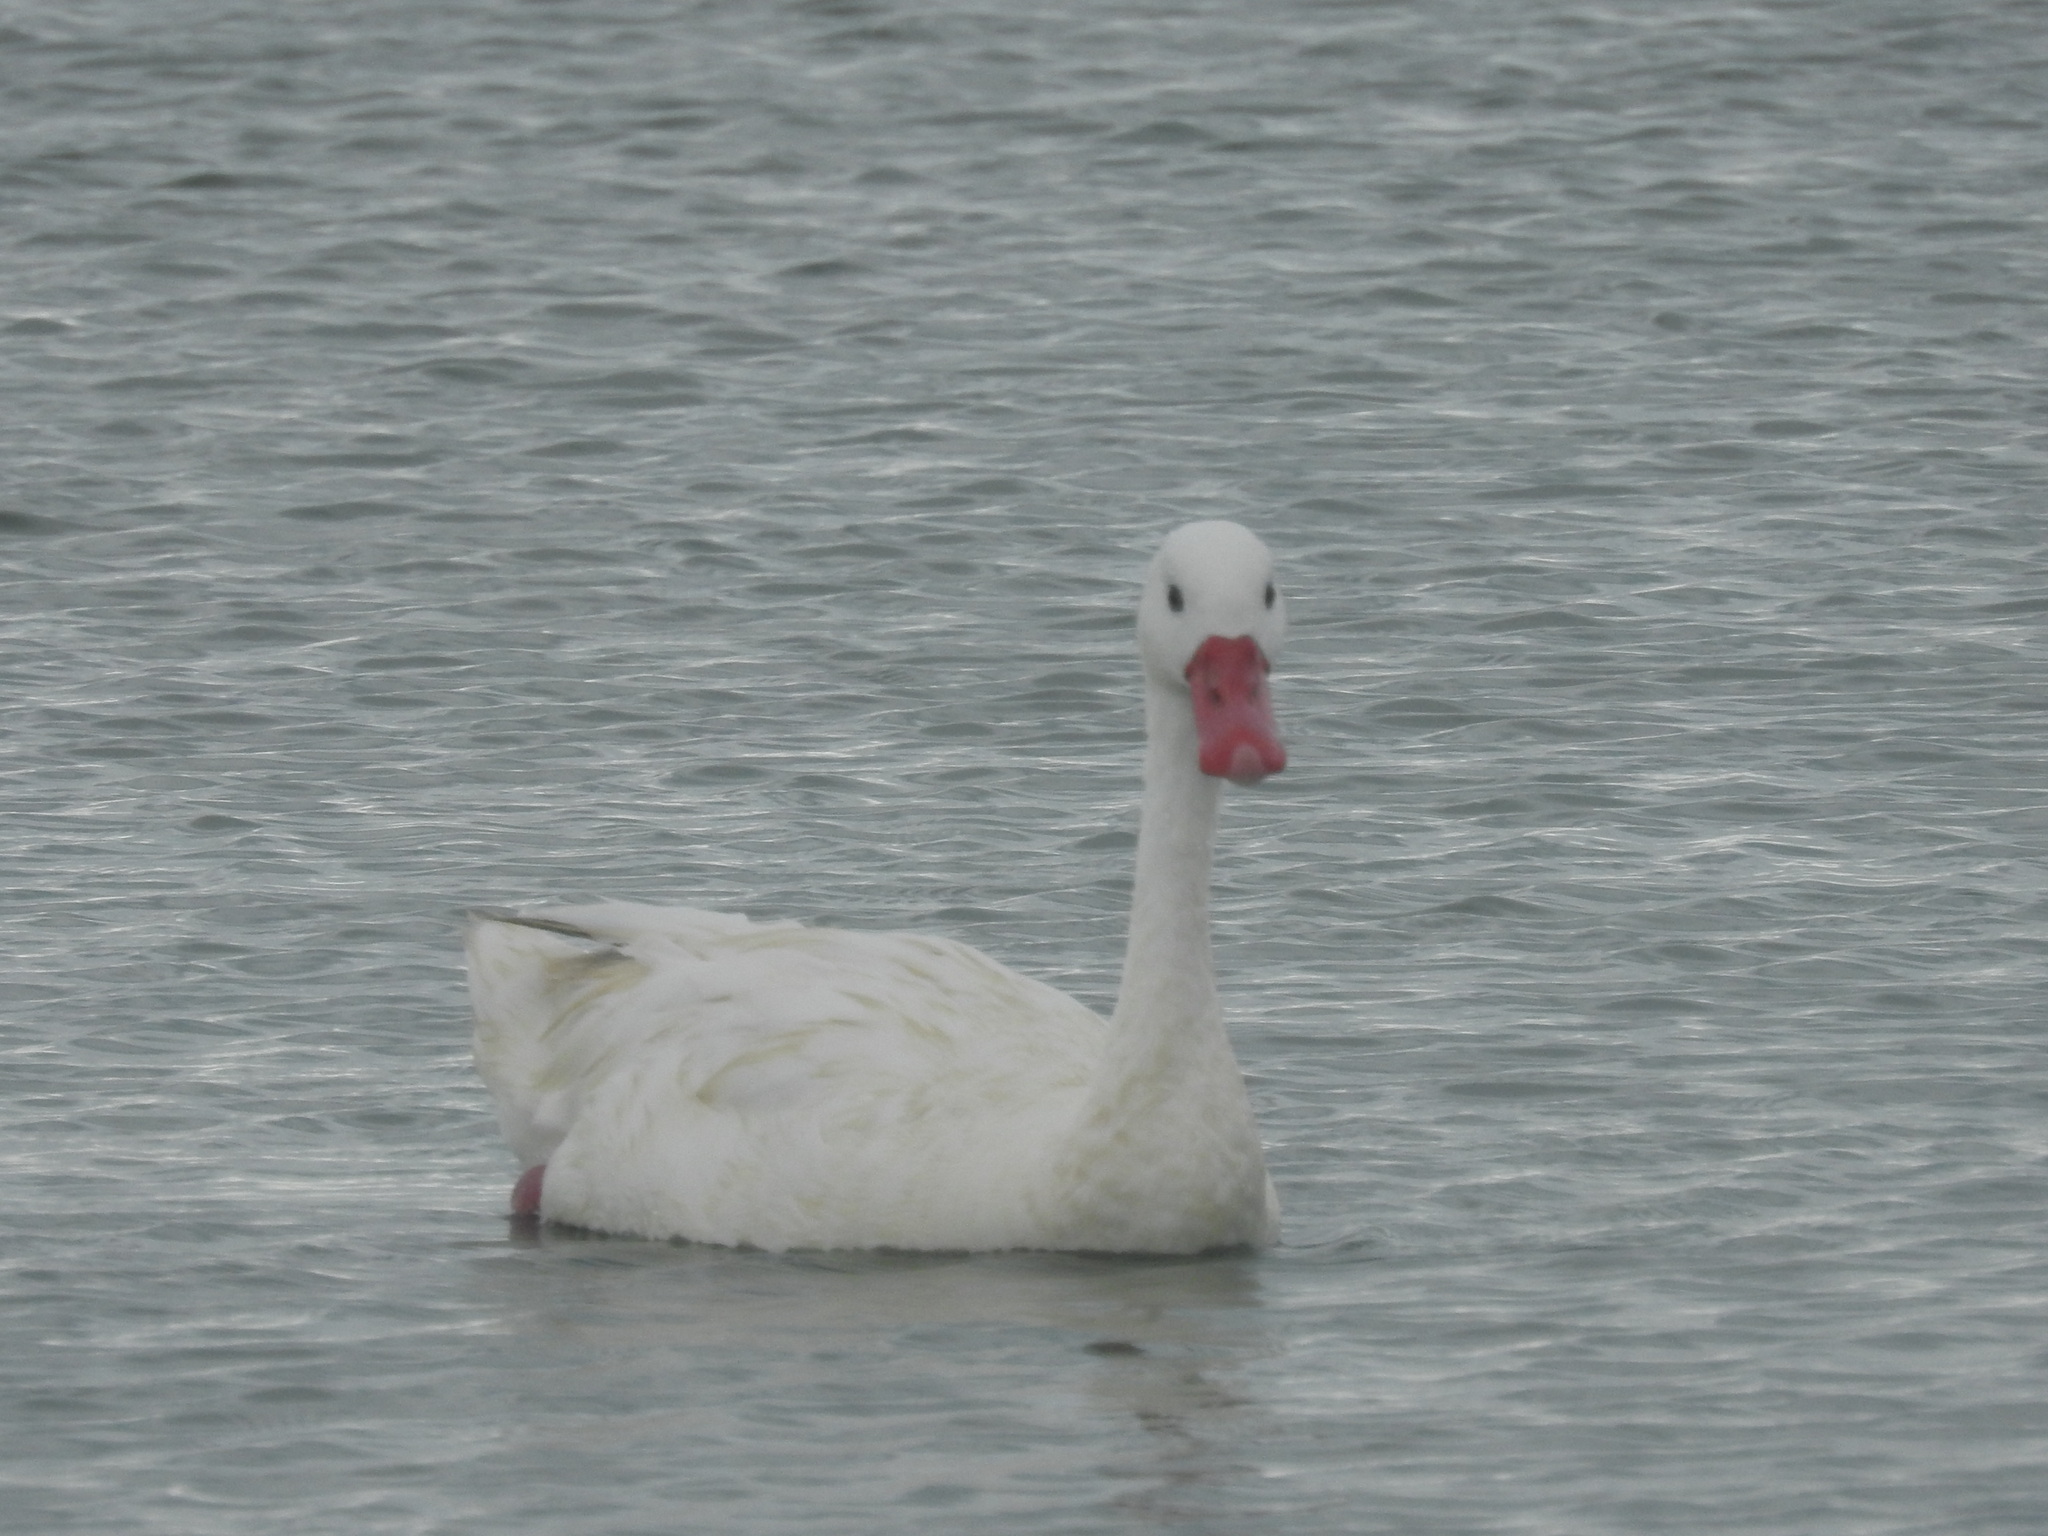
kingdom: Animalia
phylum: Chordata
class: Aves
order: Anseriformes
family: Anatidae
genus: Coscoroba
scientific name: Coscoroba coscoroba
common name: Coscoroba swan
